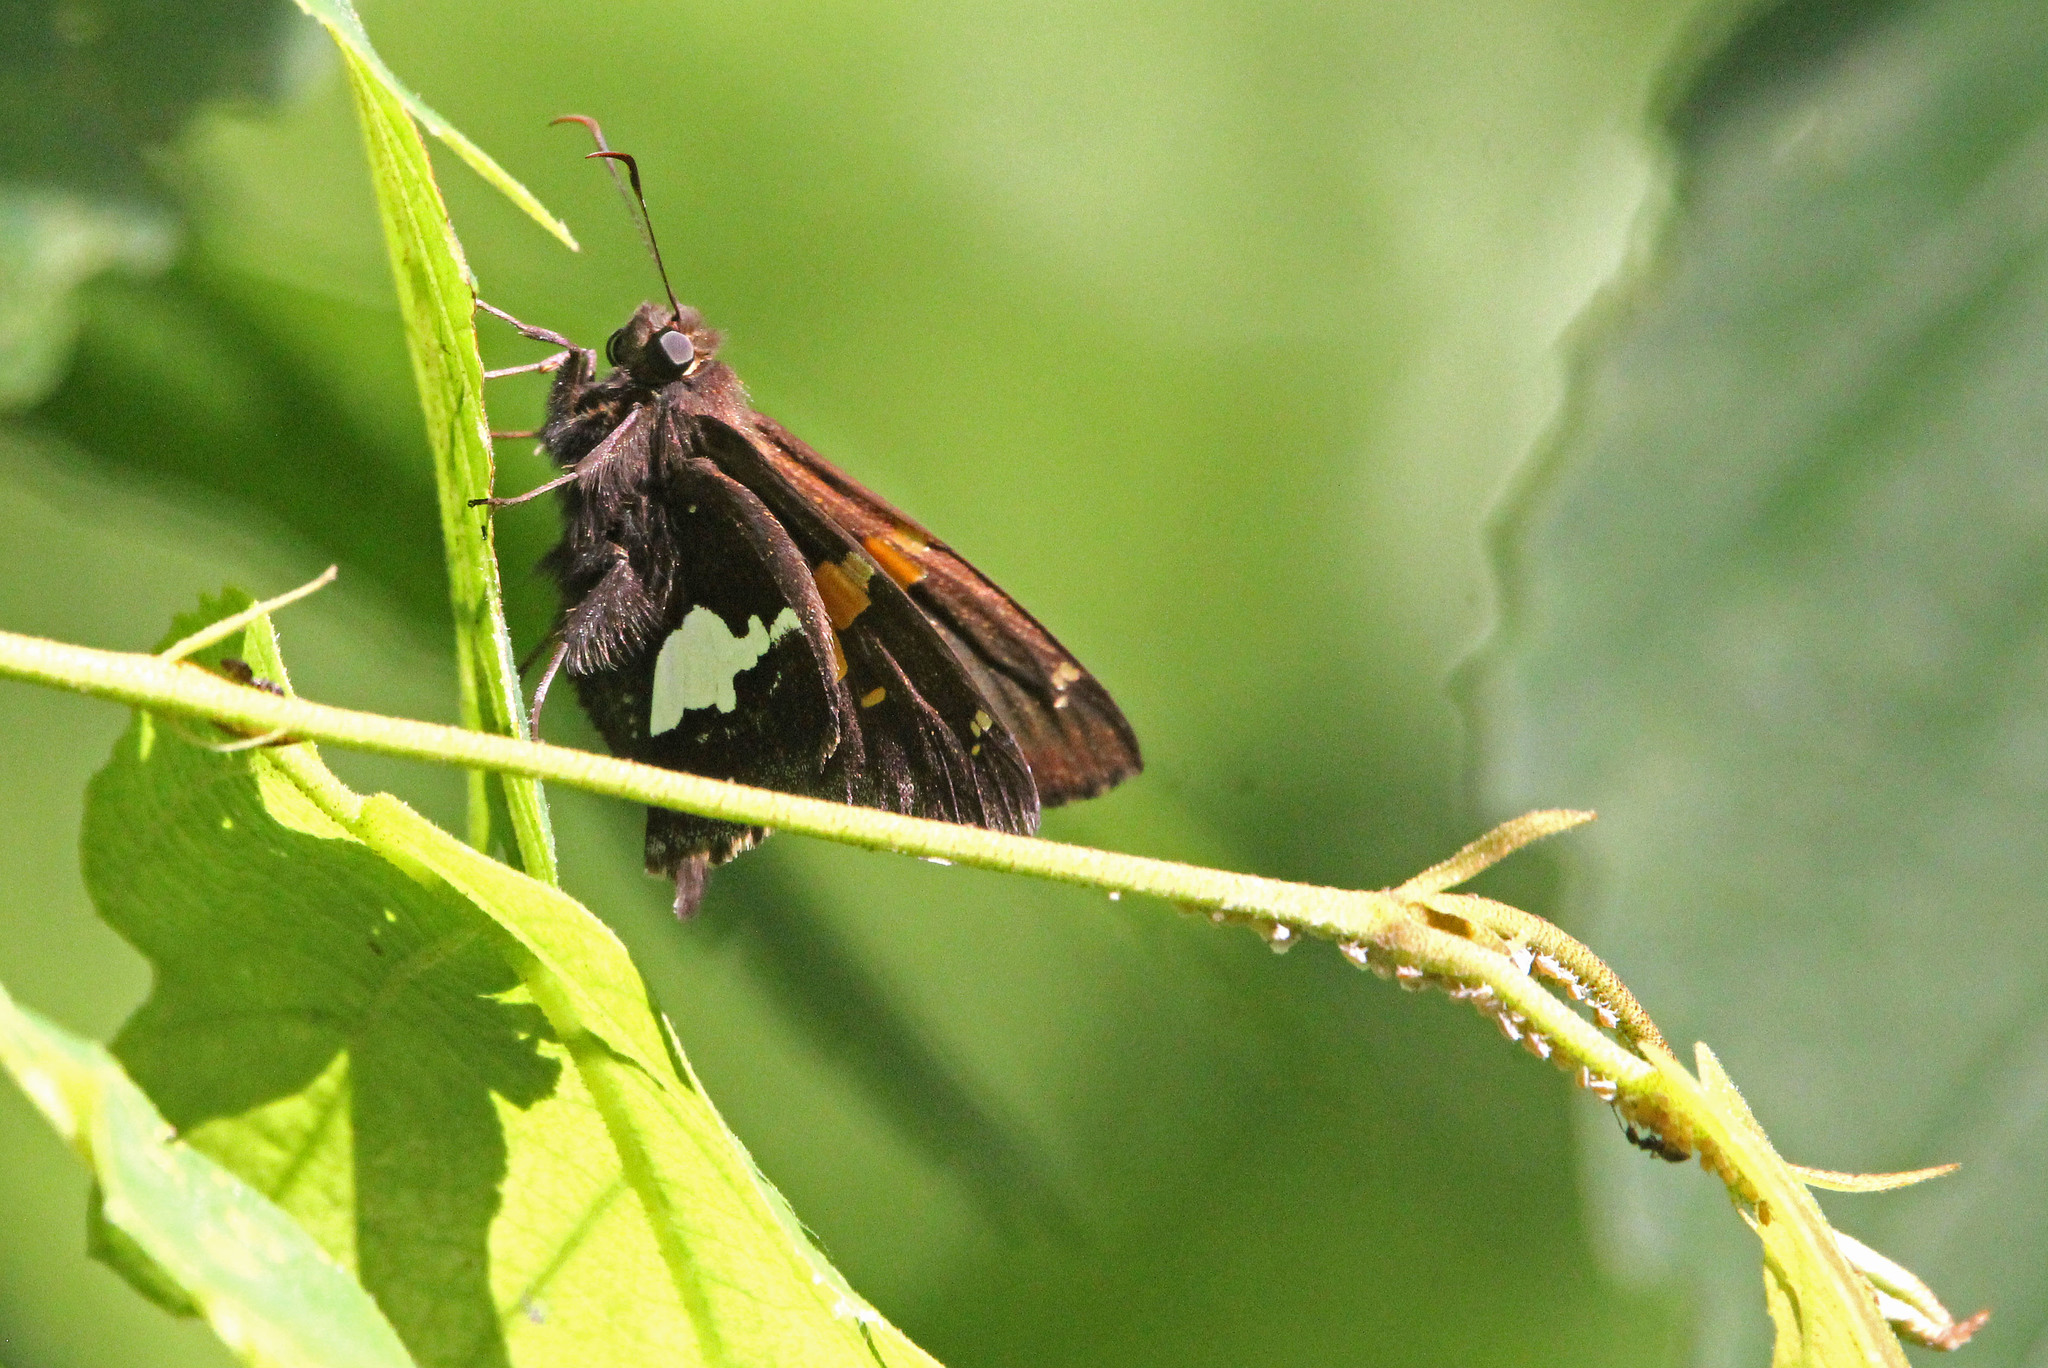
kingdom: Animalia
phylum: Arthropoda
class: Insecta
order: Lepidoptera
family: Hesperiidae
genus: Epargyreus
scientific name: Epargyreus clarus
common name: Silver-spotted skipper
